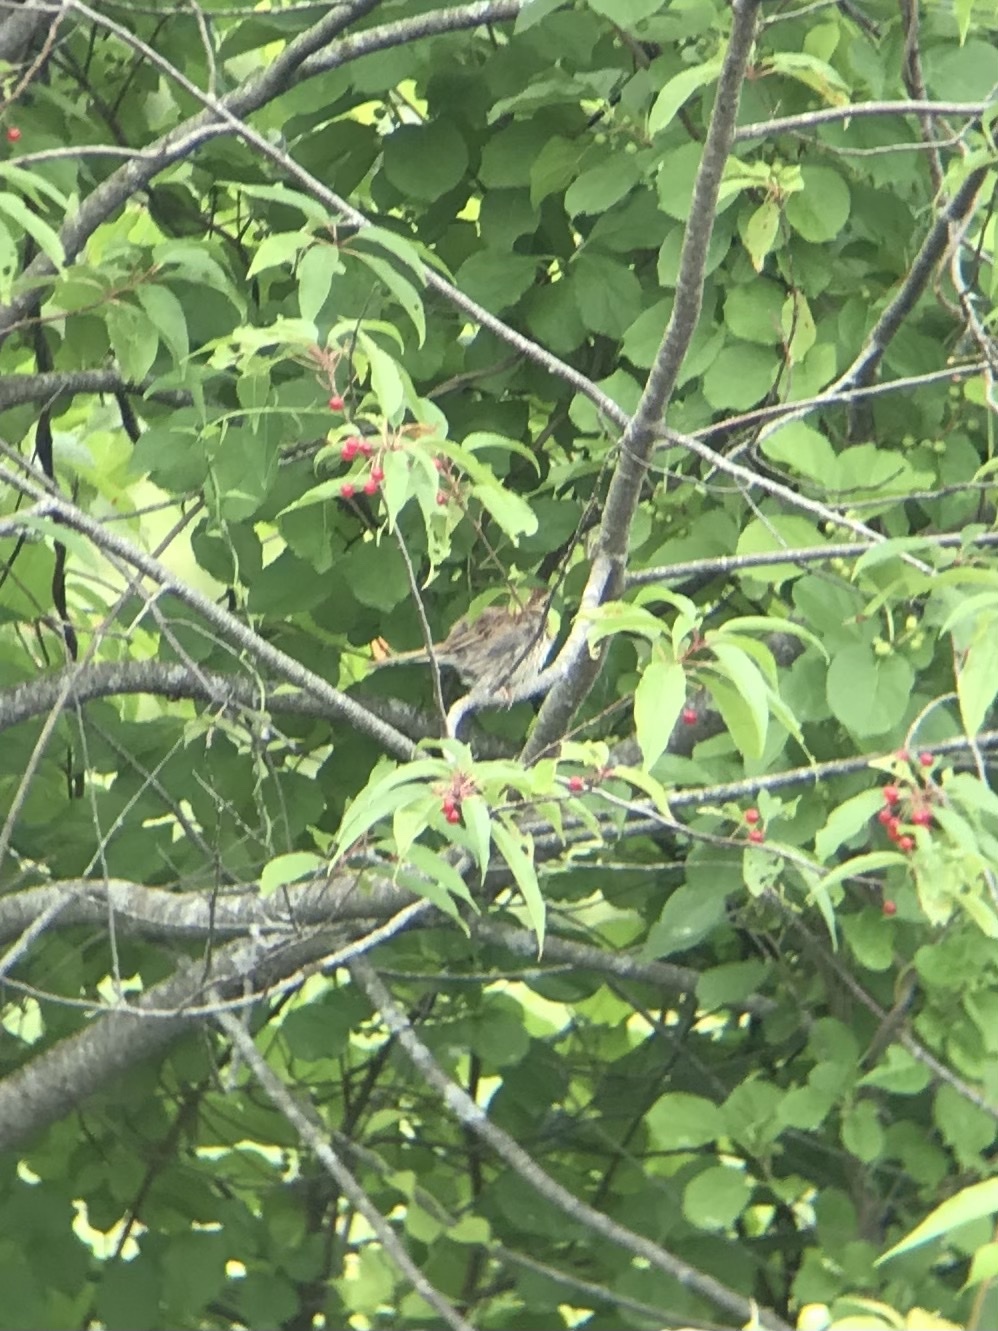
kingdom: Animalia
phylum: Chordata
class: Aves
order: Passeriformes
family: Passerellidae
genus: Spizella
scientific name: Spizella passerina
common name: Chipping sparrow
